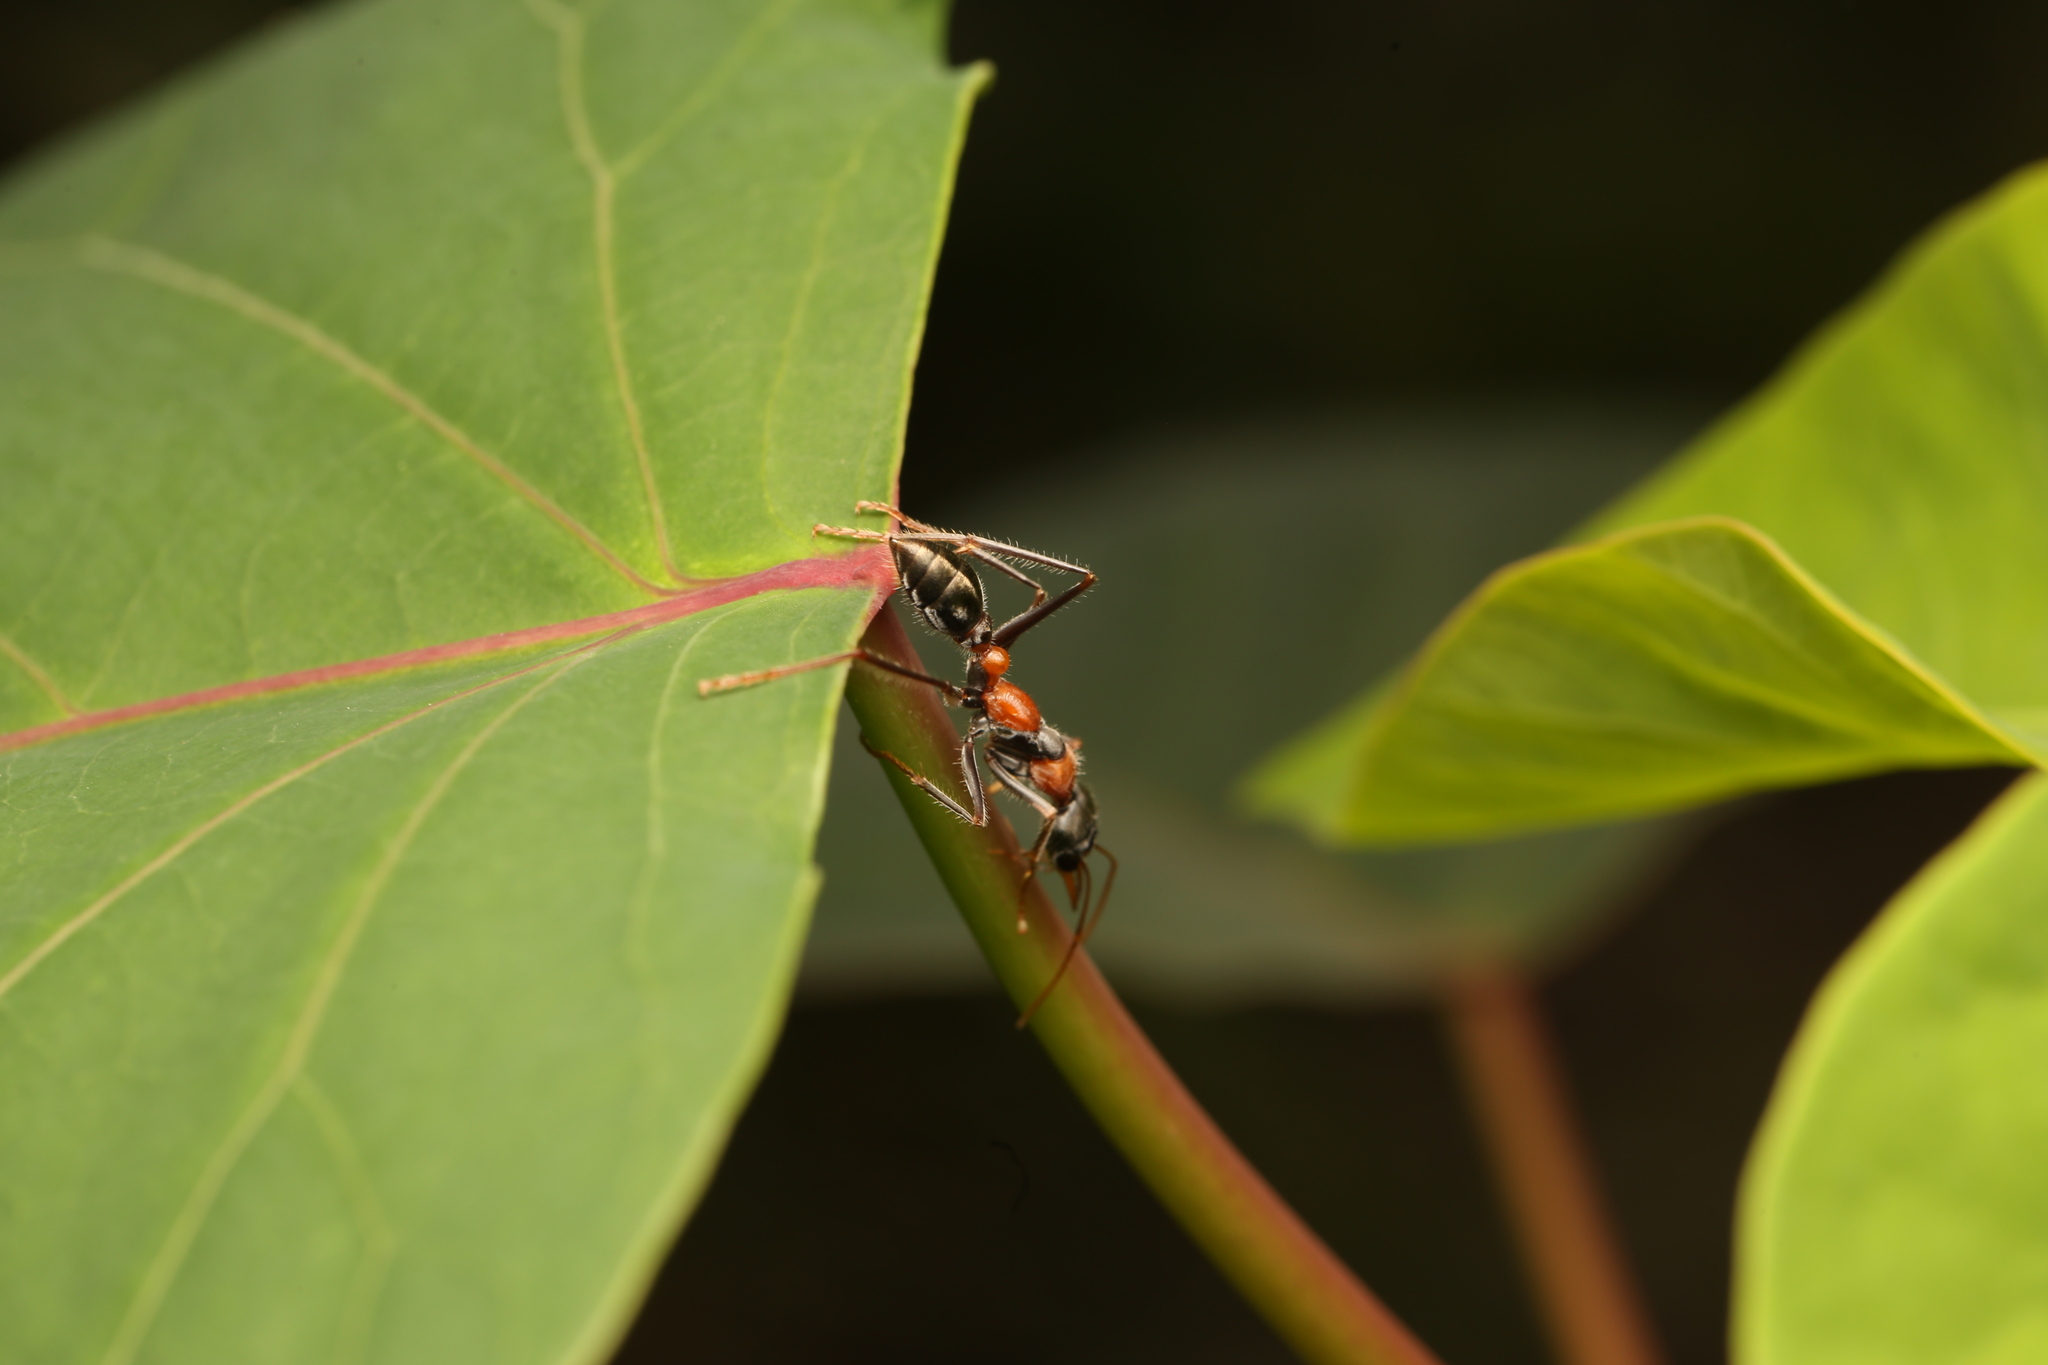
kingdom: Animalia
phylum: Arthropoda
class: Insecta
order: Hymenoptera
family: Formicidae
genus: Myrmecia
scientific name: Myrmecia nigrocincta
